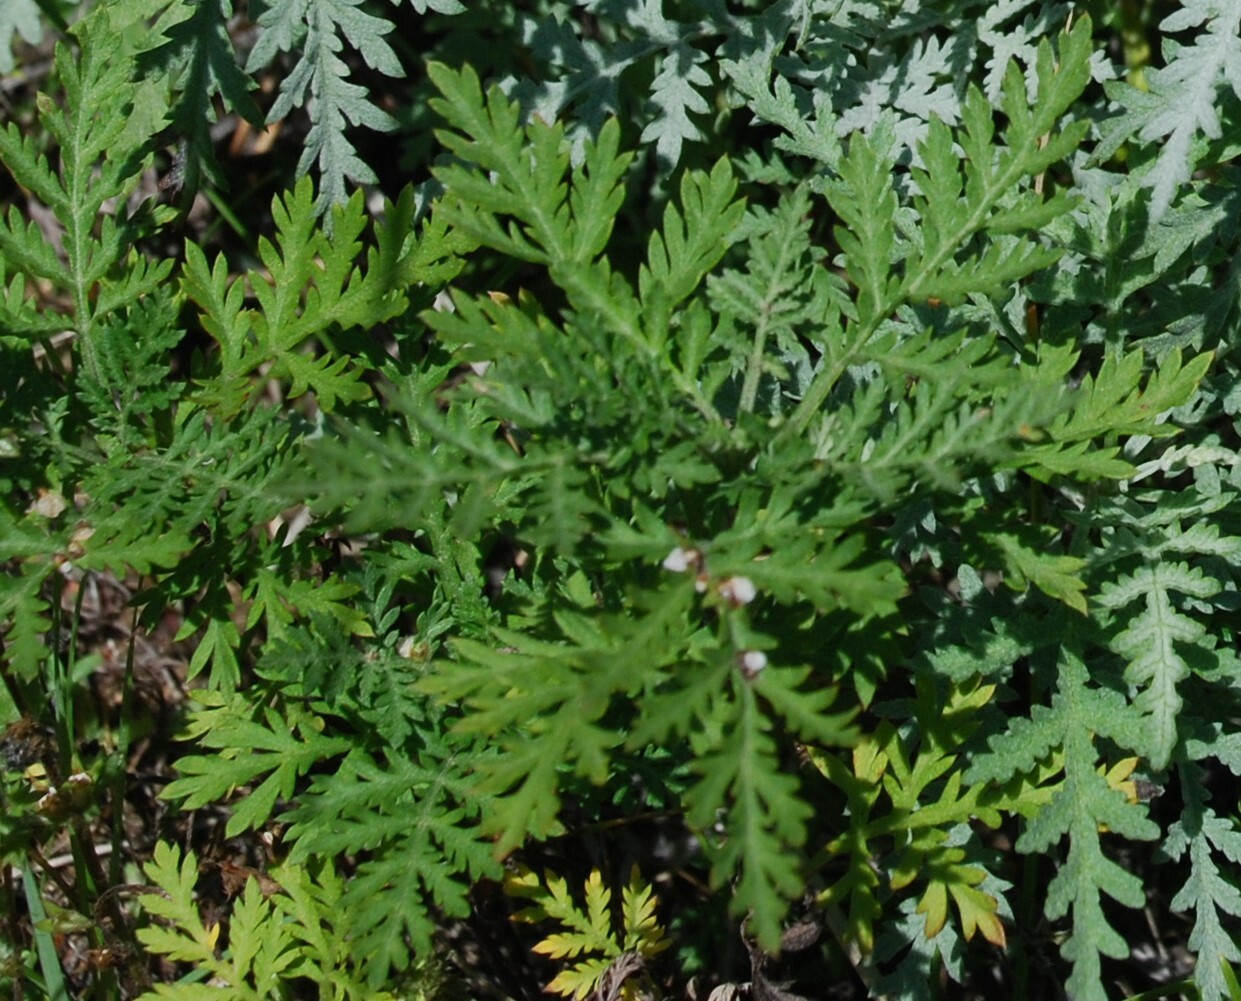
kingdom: Plantae
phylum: Tracheophyta
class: Magnoliopsida
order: Asterales
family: Asteraceae
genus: Artemisia
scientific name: Artemisia gmelinii
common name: Gmelin's wormwood
